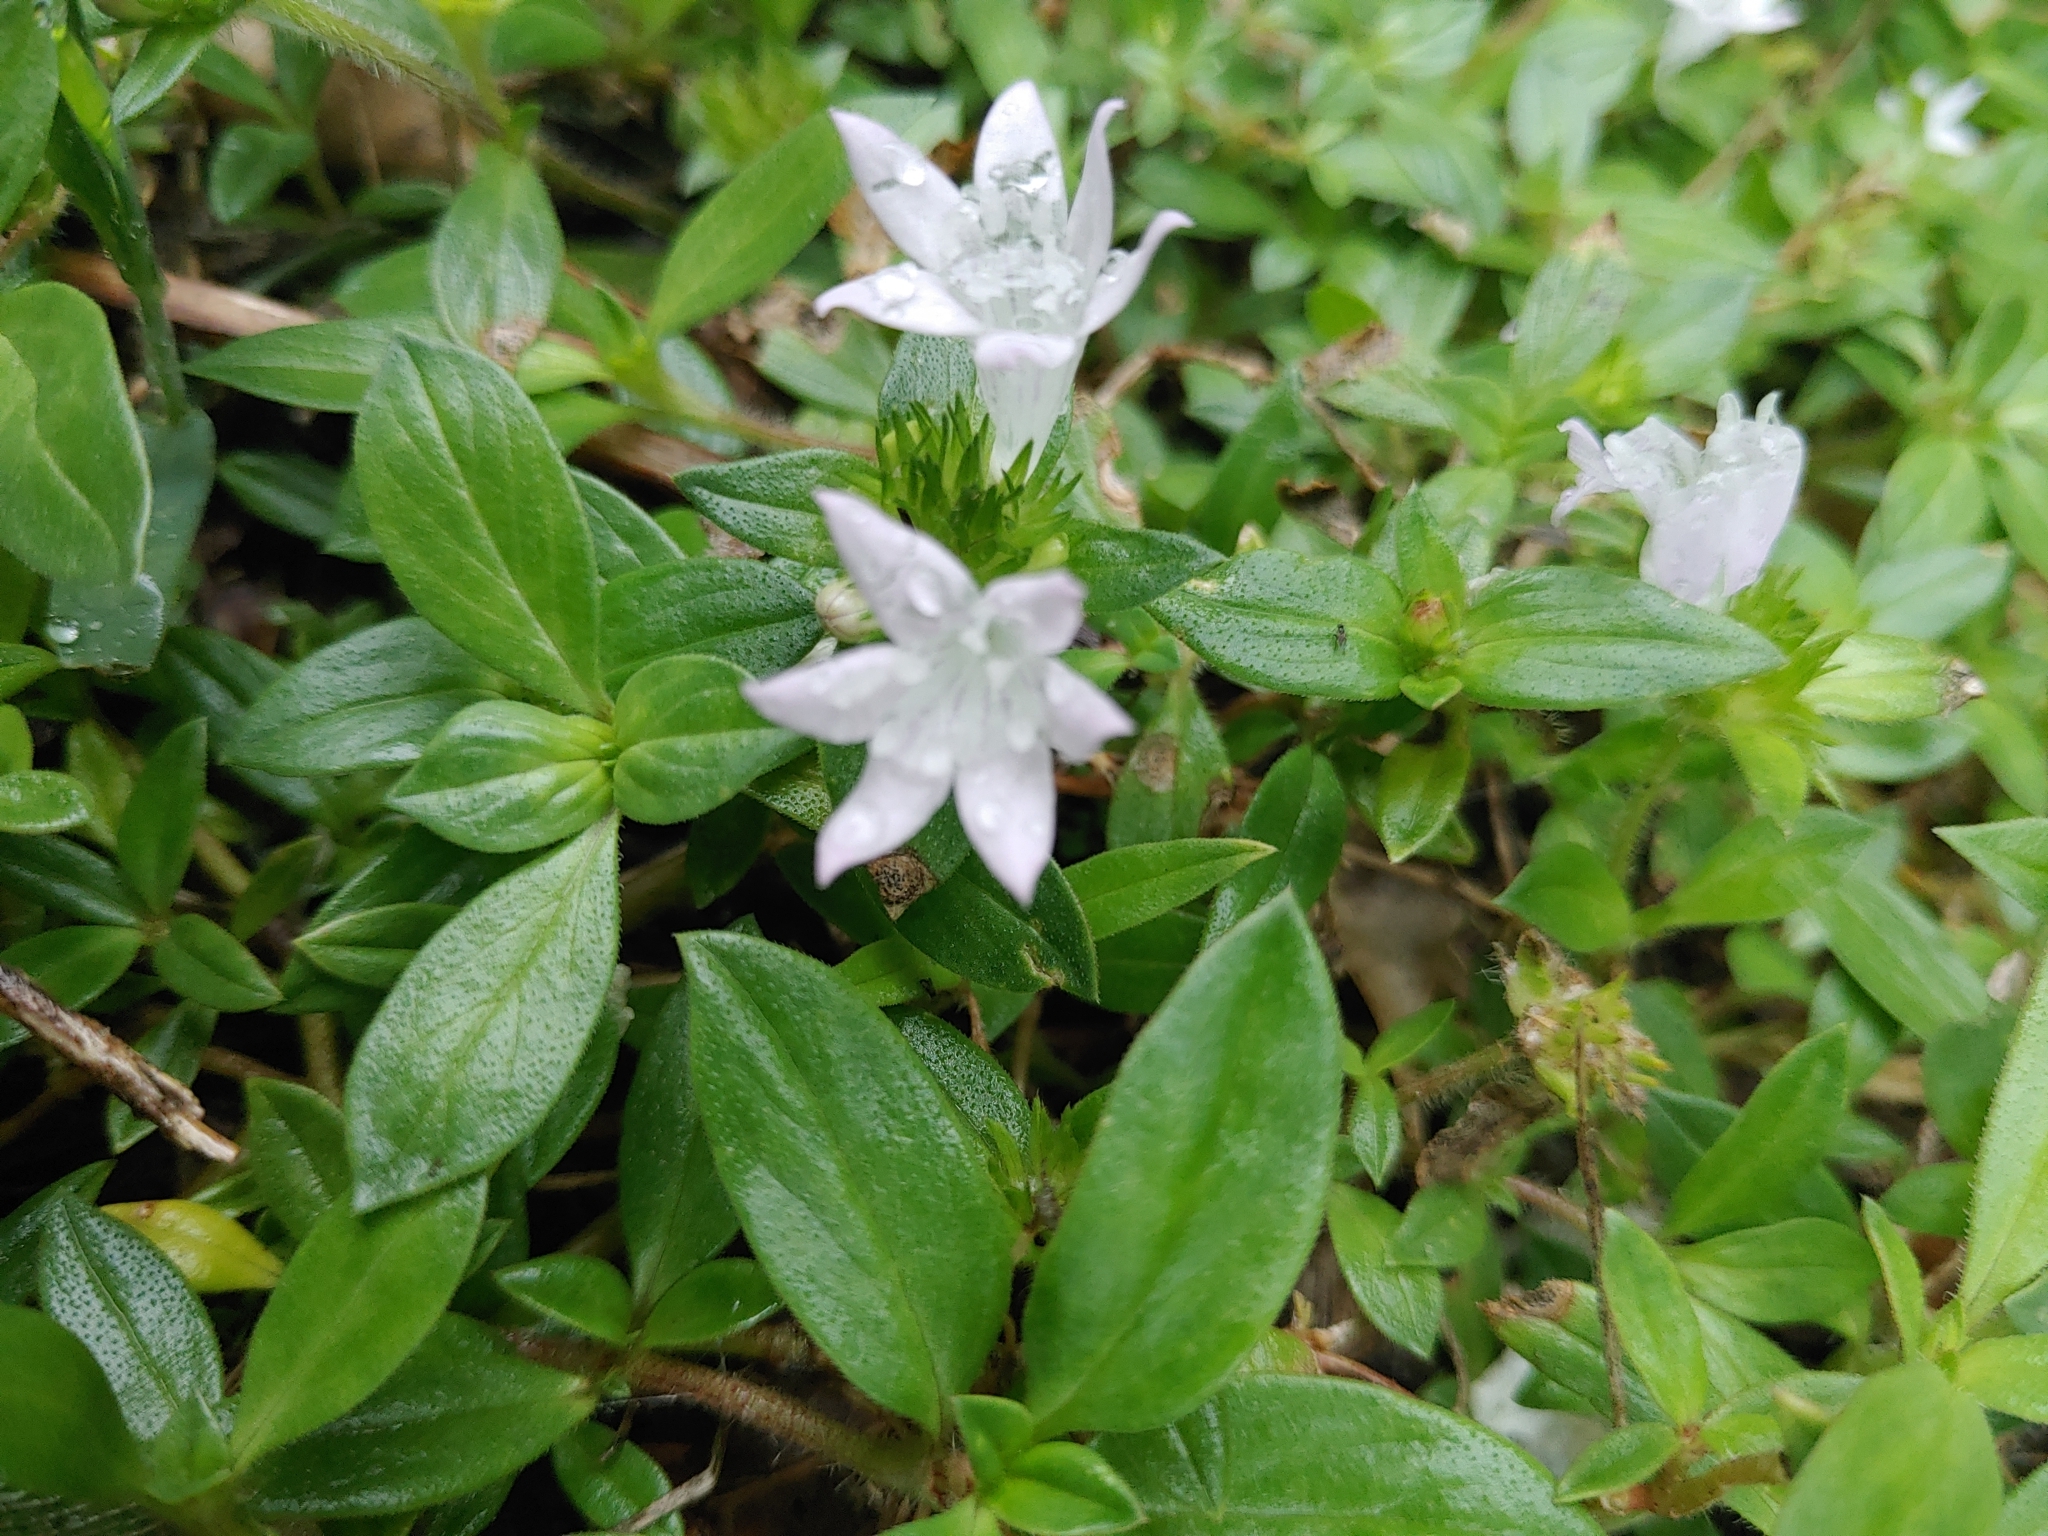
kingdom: Plantae
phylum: Tracheophyta
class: Magnoliopsida
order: Gentianales
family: Rubiaceae
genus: Richardia
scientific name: Richardia grandiflora
